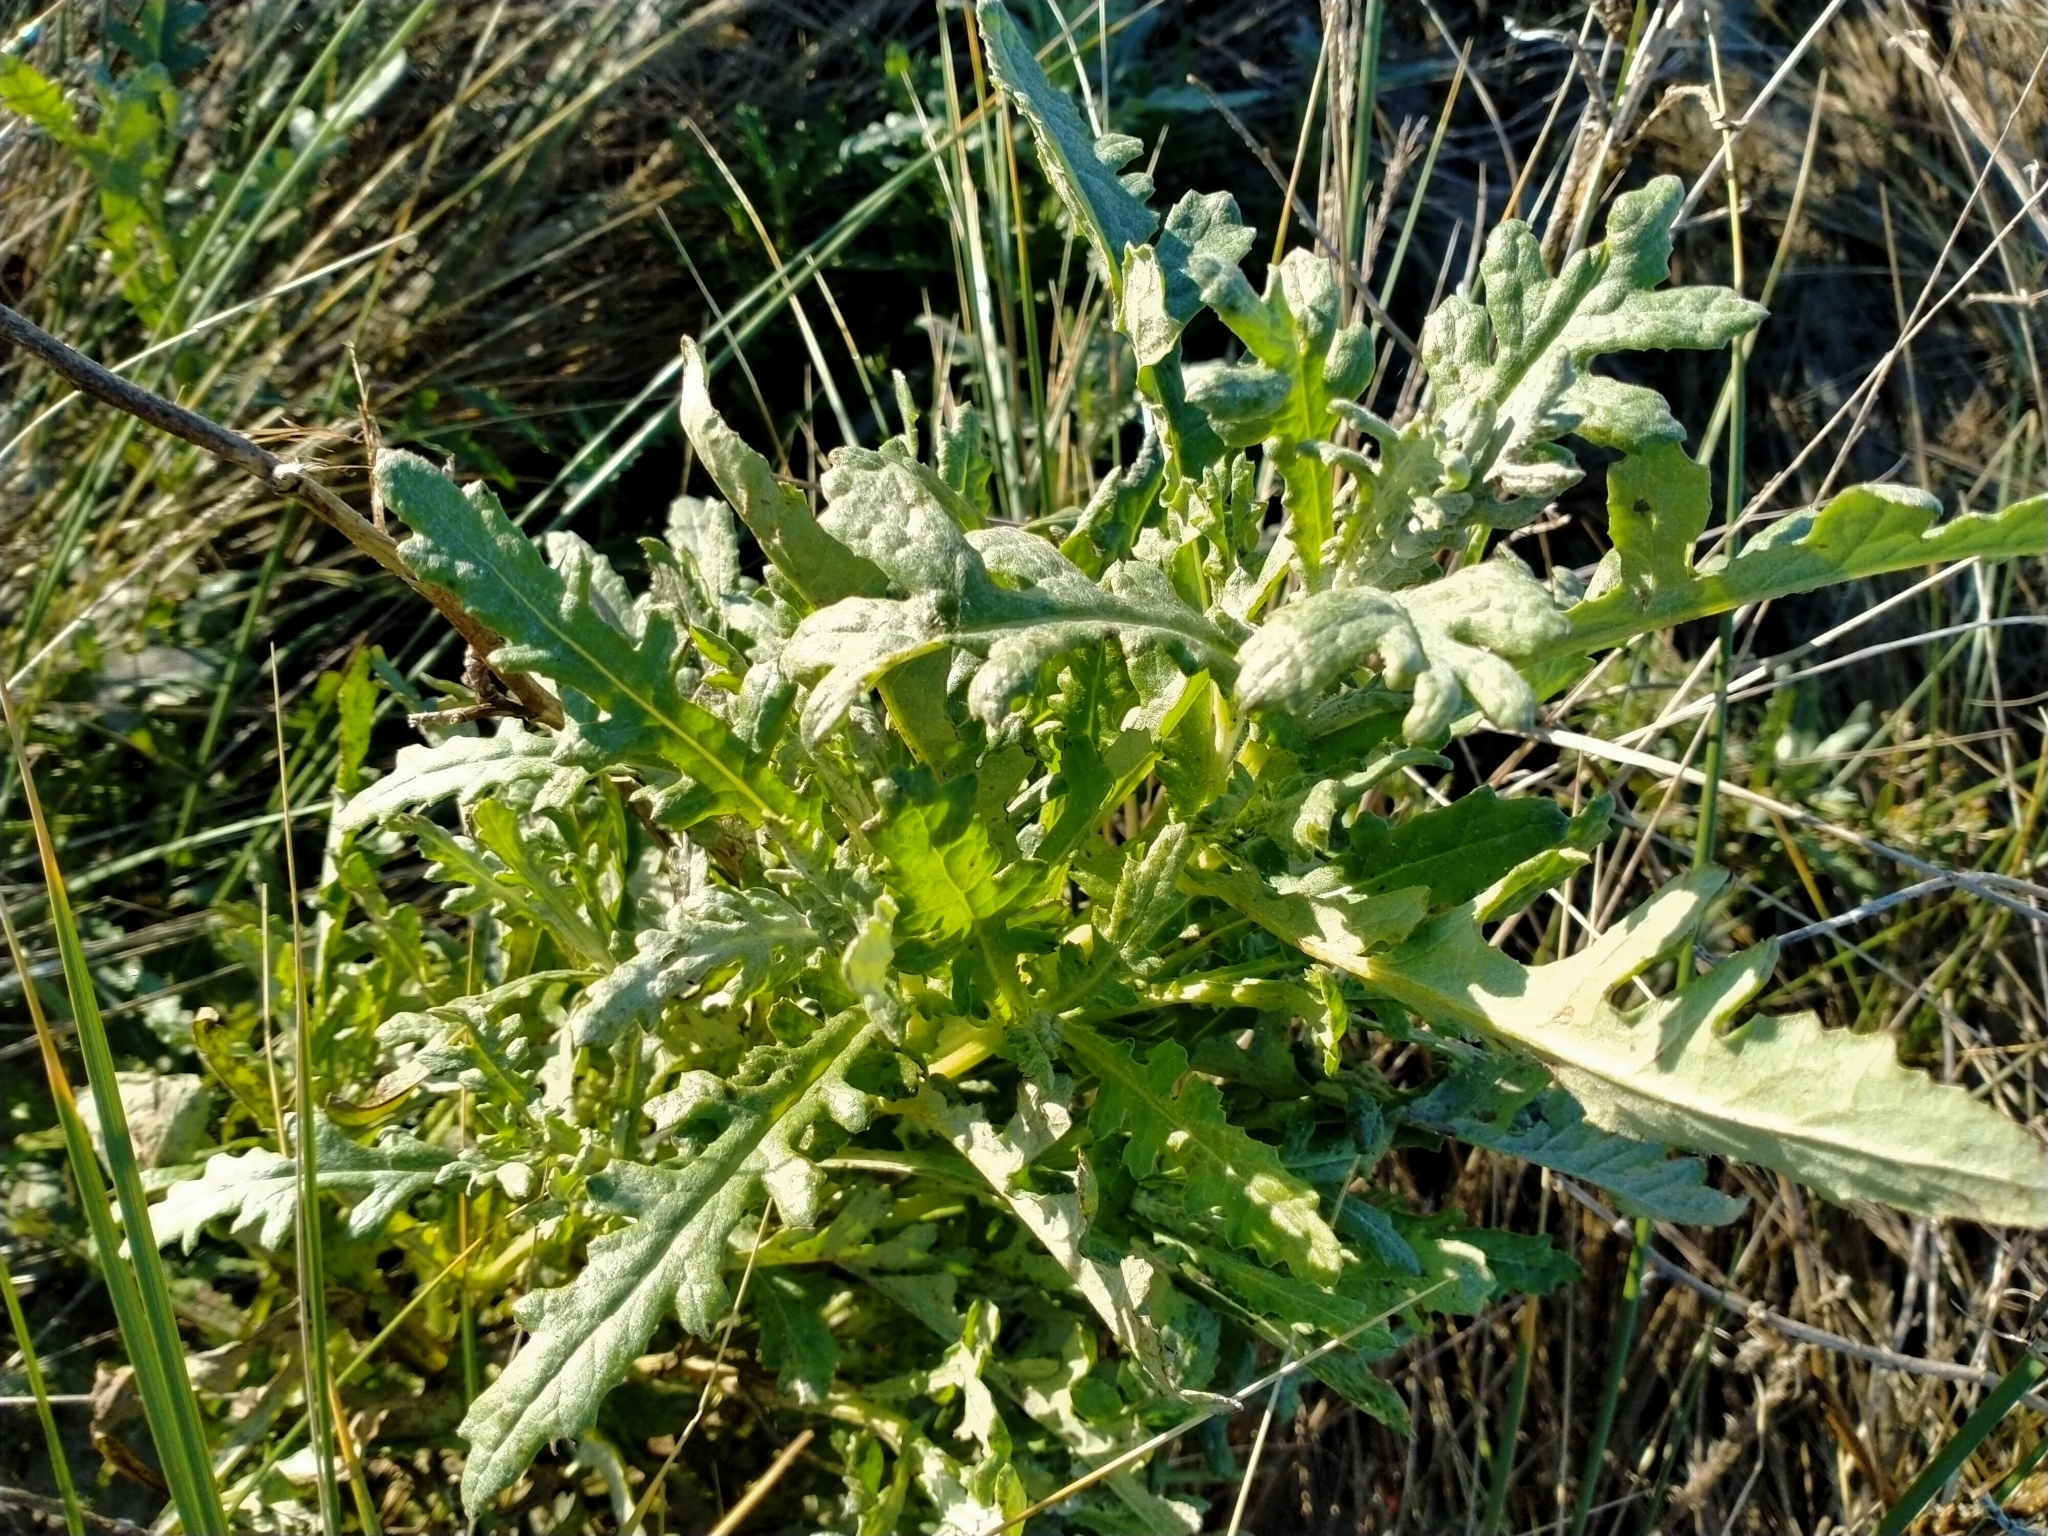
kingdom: Plantae
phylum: Tracheophyta
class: Magnoliopsida
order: Asterales
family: Asteraceae
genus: Senecio
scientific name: Senecio glomeratus
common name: Cutleaf burnweed
